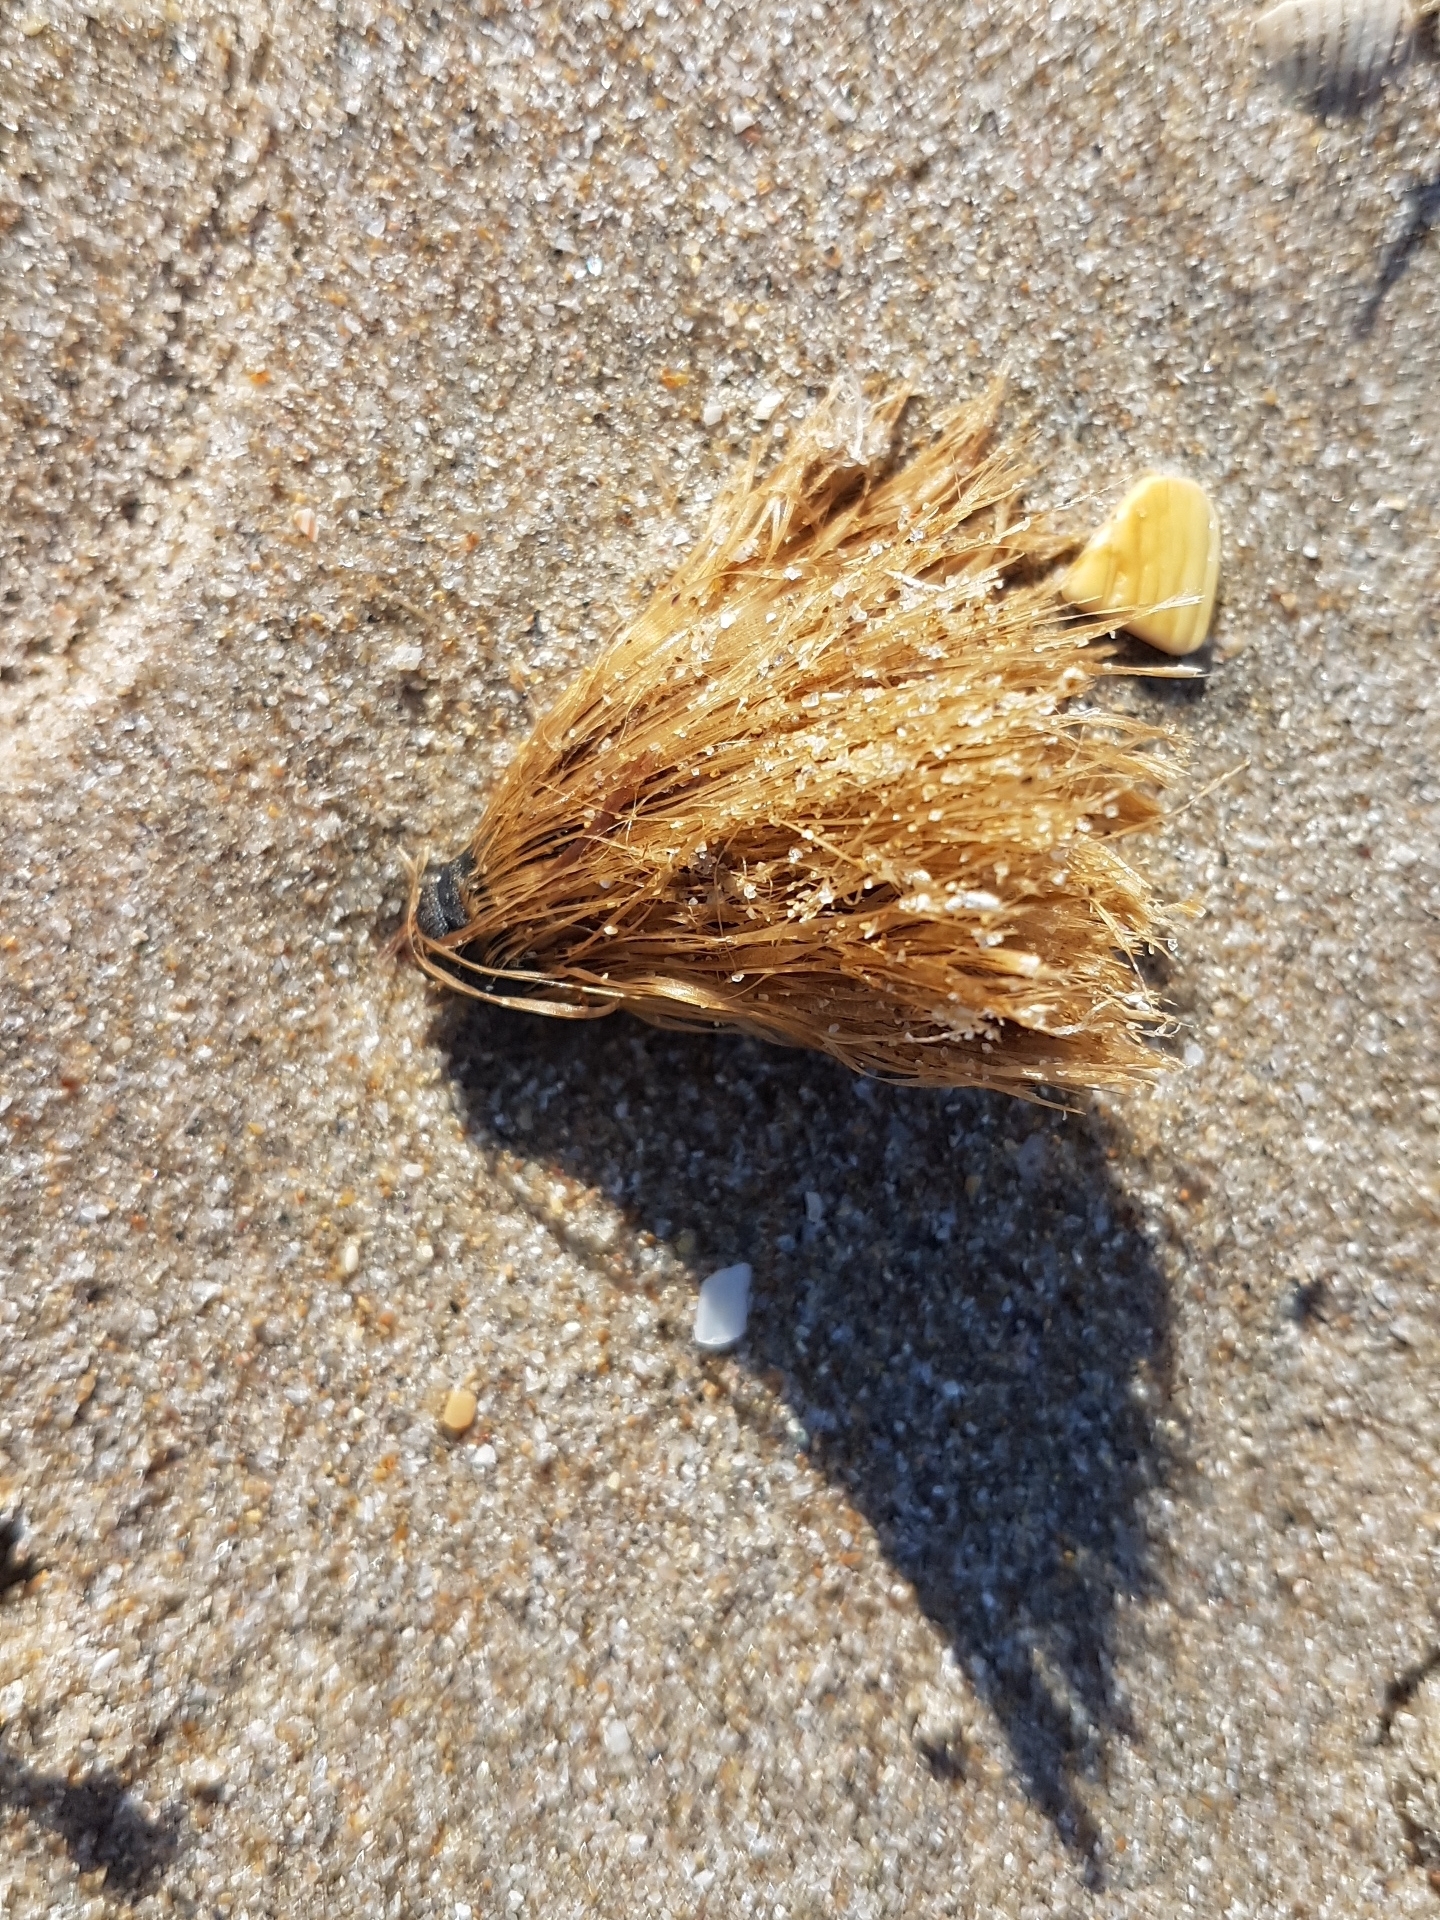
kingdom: Plantae
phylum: Tracheophyta
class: Liliopsida
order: Alismatales
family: Posidoniaceae
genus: Posidonia
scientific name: Posidonia oceanica
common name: Mediterranean tapeweed
